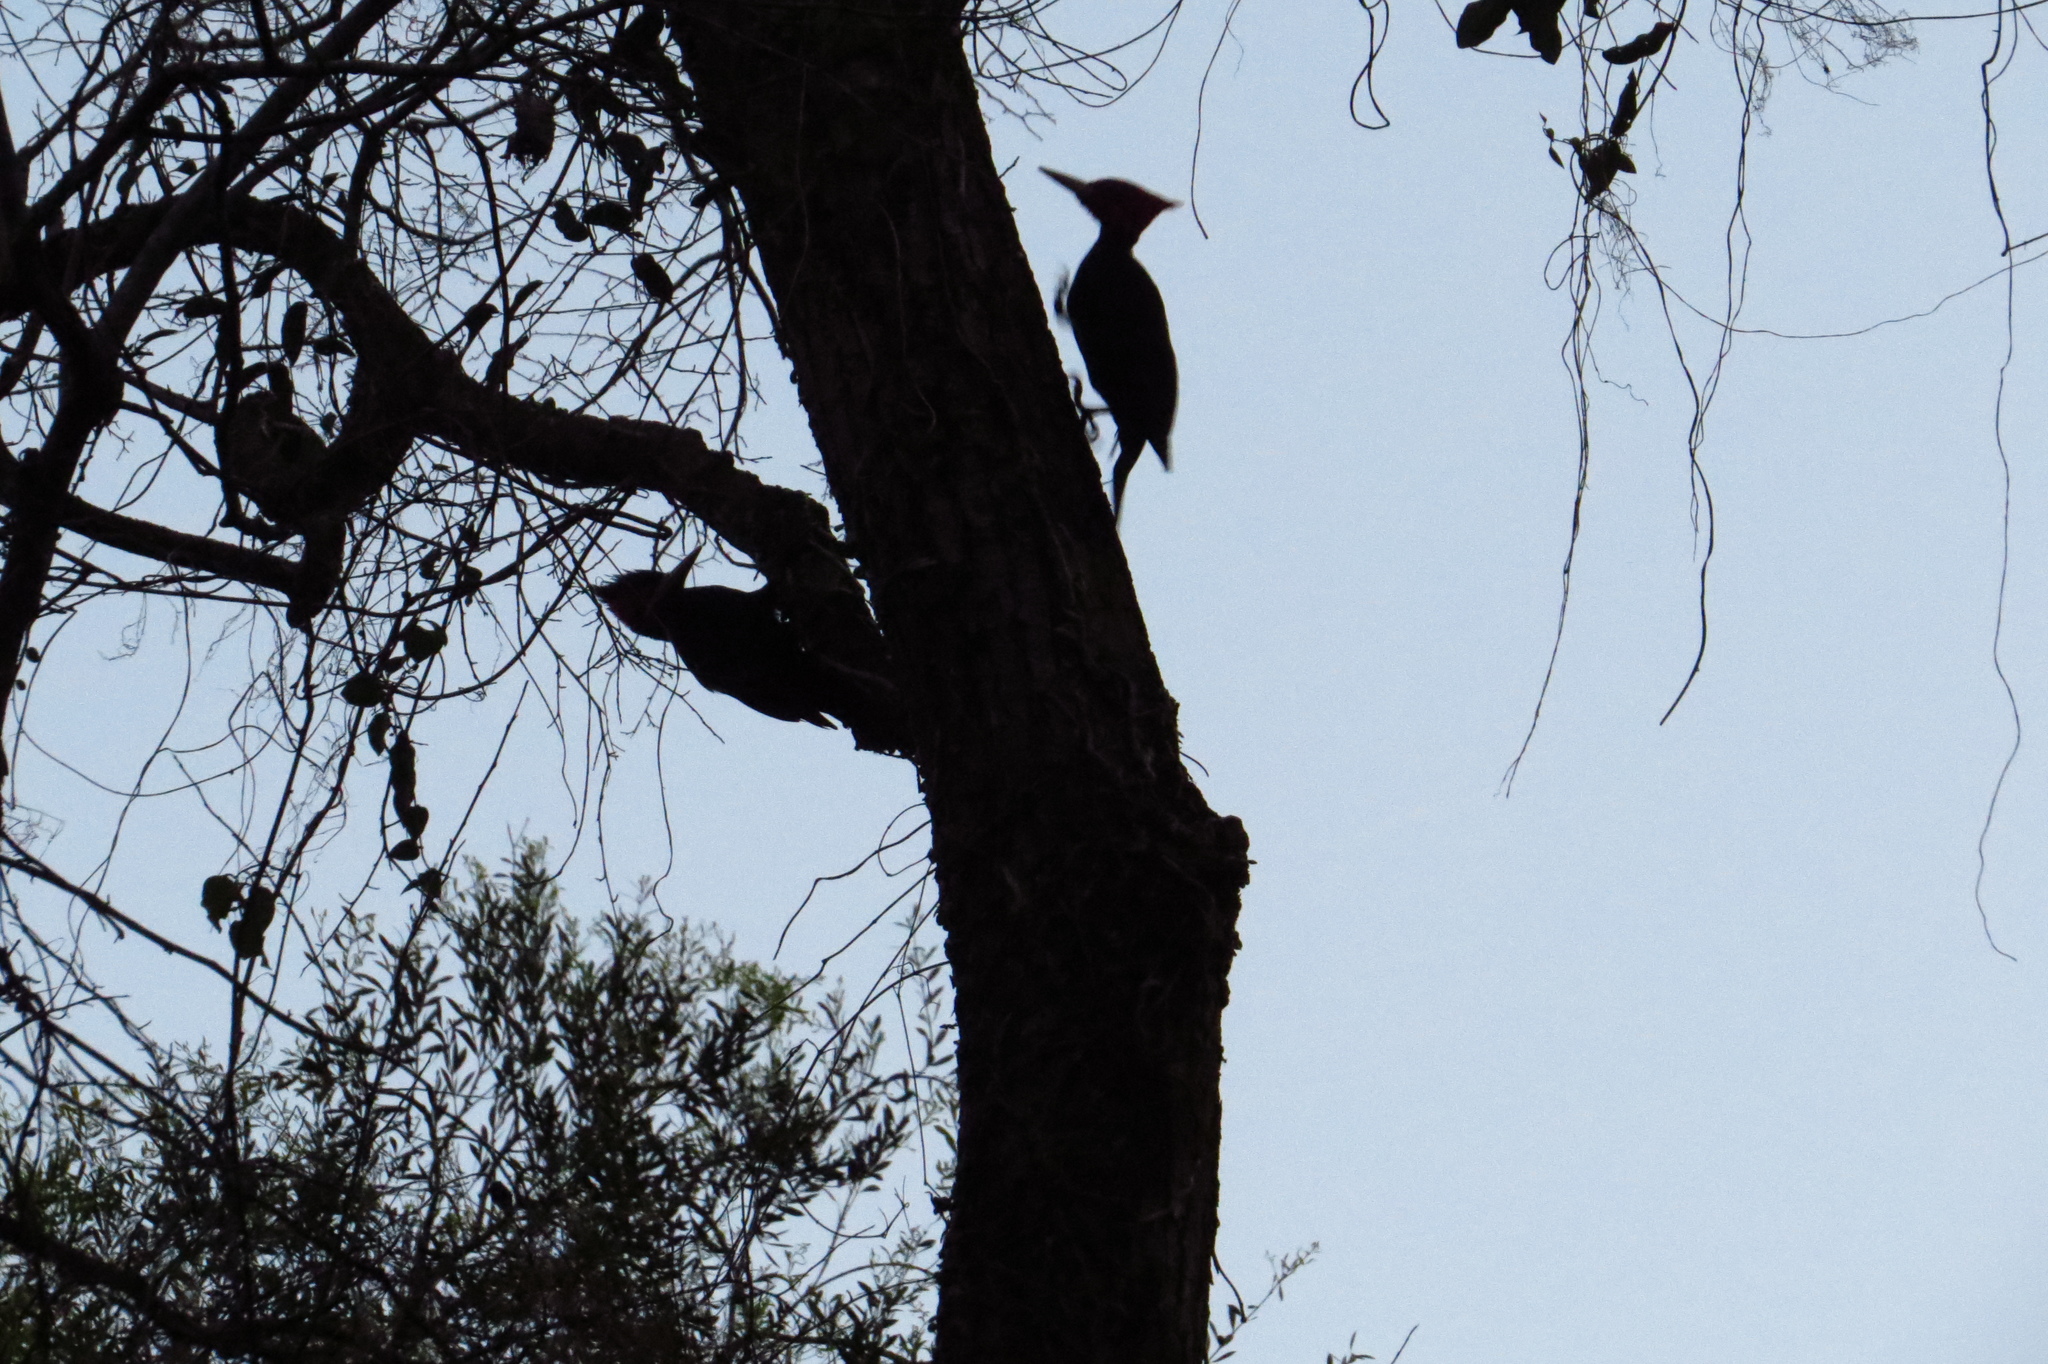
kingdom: Animalia
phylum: Chordata
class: Aves
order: Piciformes
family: Picidae
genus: Campephilus
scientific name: Campephilus leucopogon
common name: Cream-backed woodpecker
